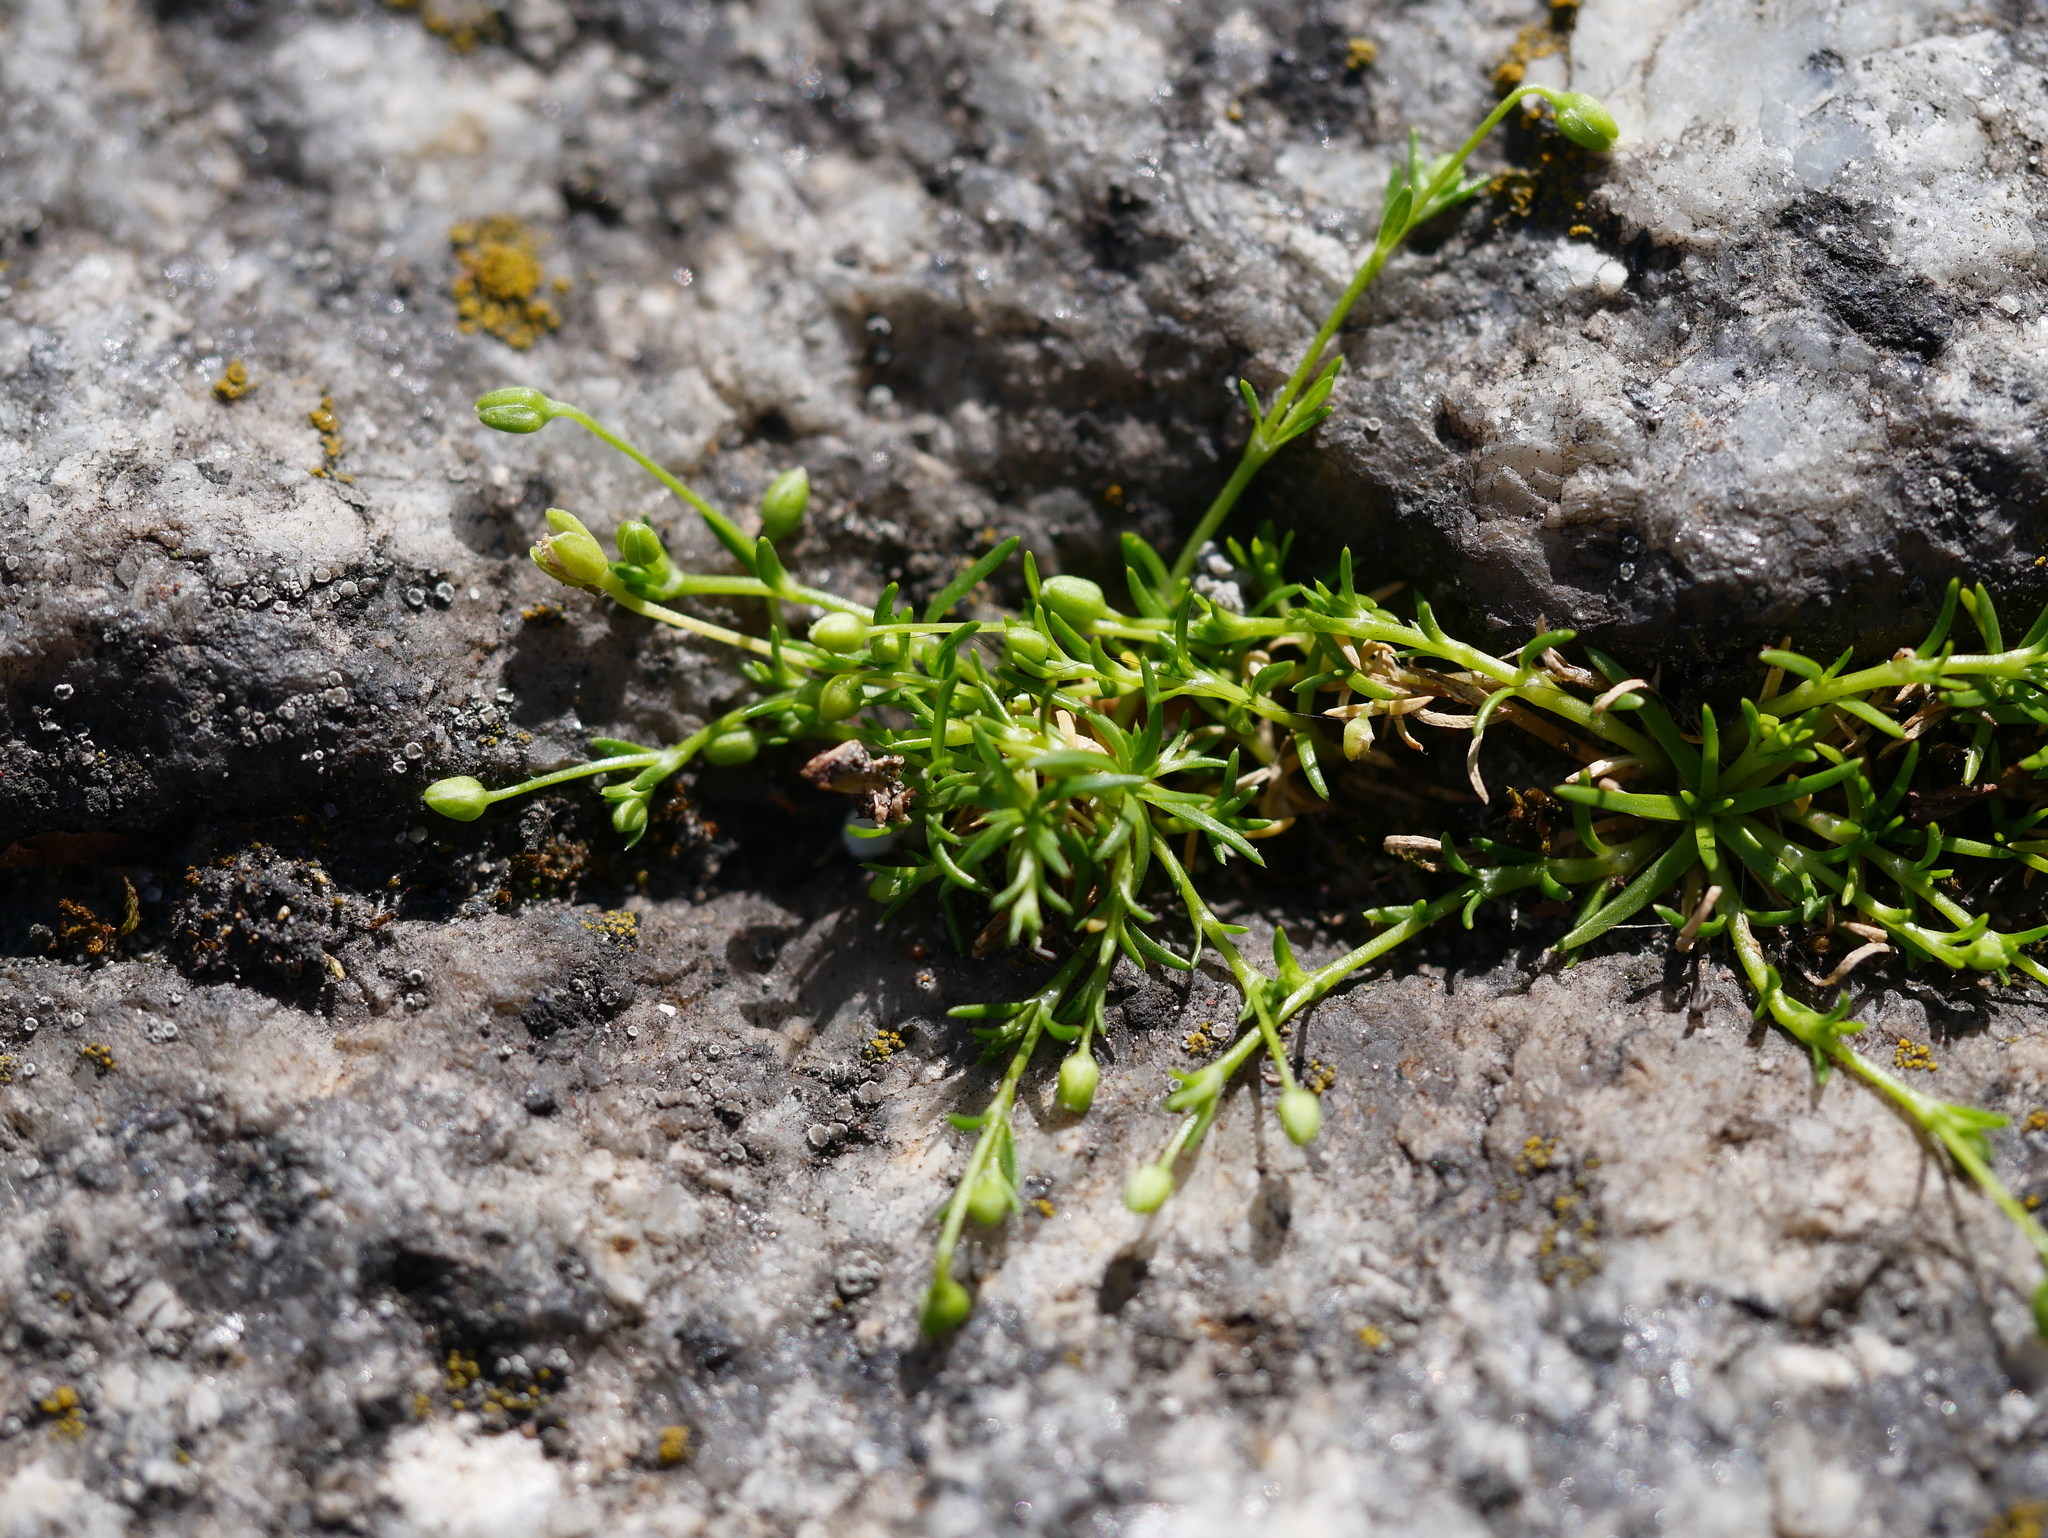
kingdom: Plantae
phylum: Tracheophyta
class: Magnoliopsida
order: Caryophyllales
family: Caryophyllaceae
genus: Sagina
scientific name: Sagina procumbens
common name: Procumbent pearlwort
